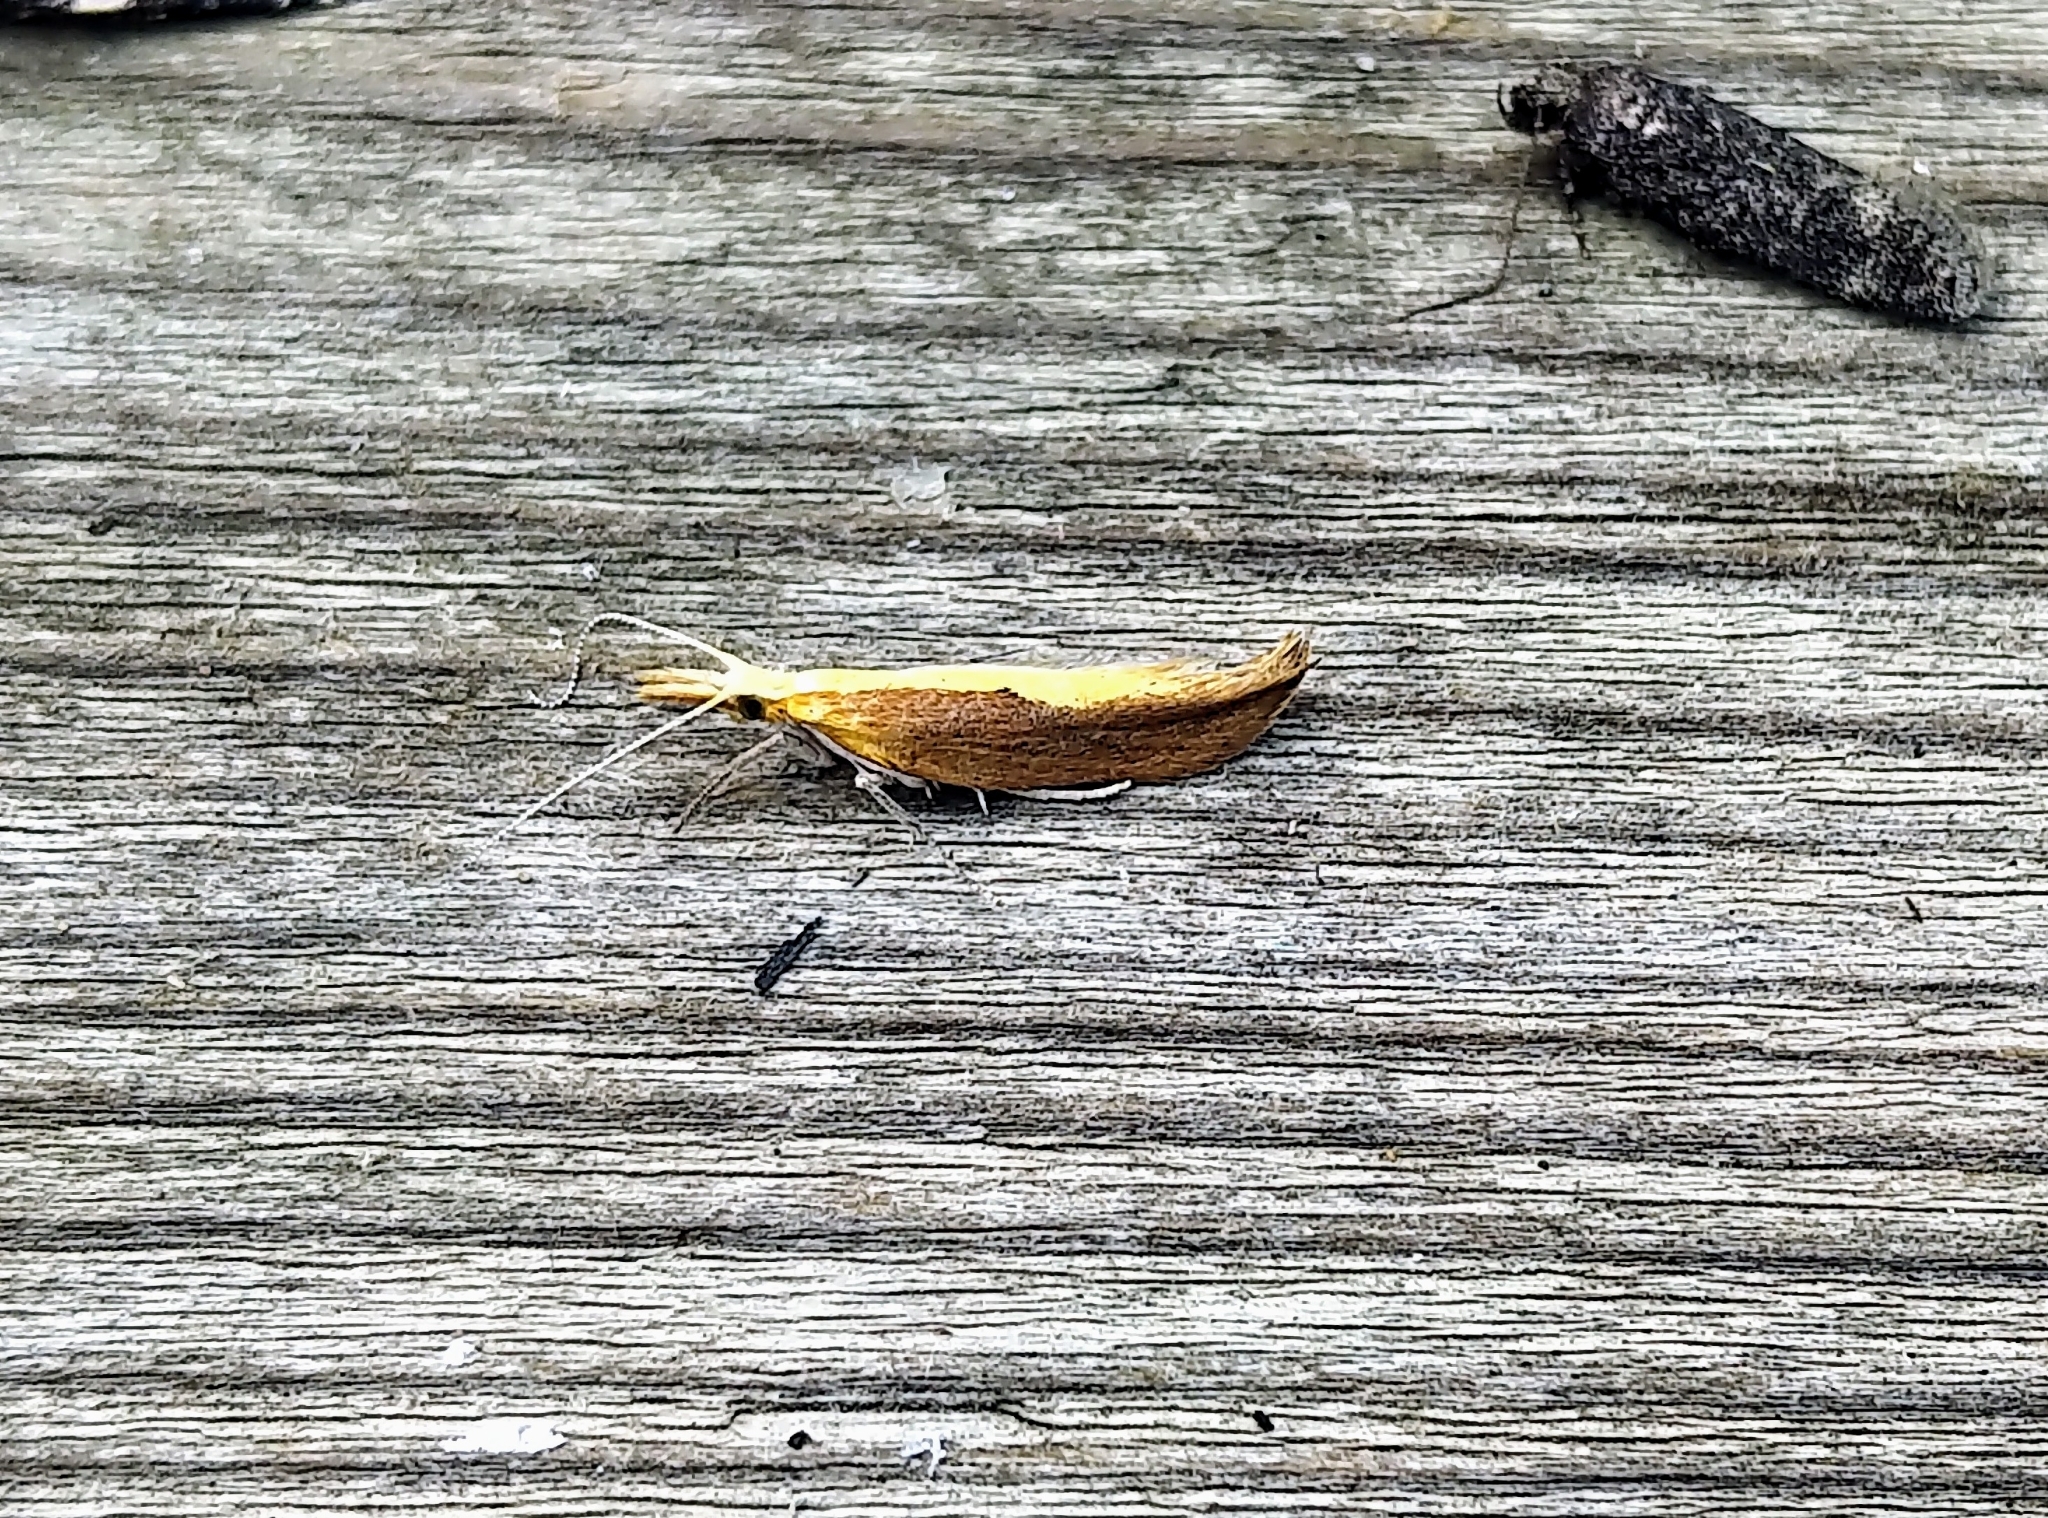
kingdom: Animalia
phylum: Arthropoda
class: Insecta
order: Lepidoptera
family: Ypsolophidae
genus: Ypsolopha
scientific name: Ypsolopha
